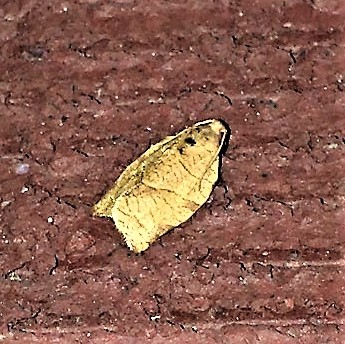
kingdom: Animalia
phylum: Arthropoda
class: Insecta
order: Lepidoptera
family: Tortricidae
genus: Choristoneura
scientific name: Choristoneura rosaceana
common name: Oblique-banded leafroller moth
